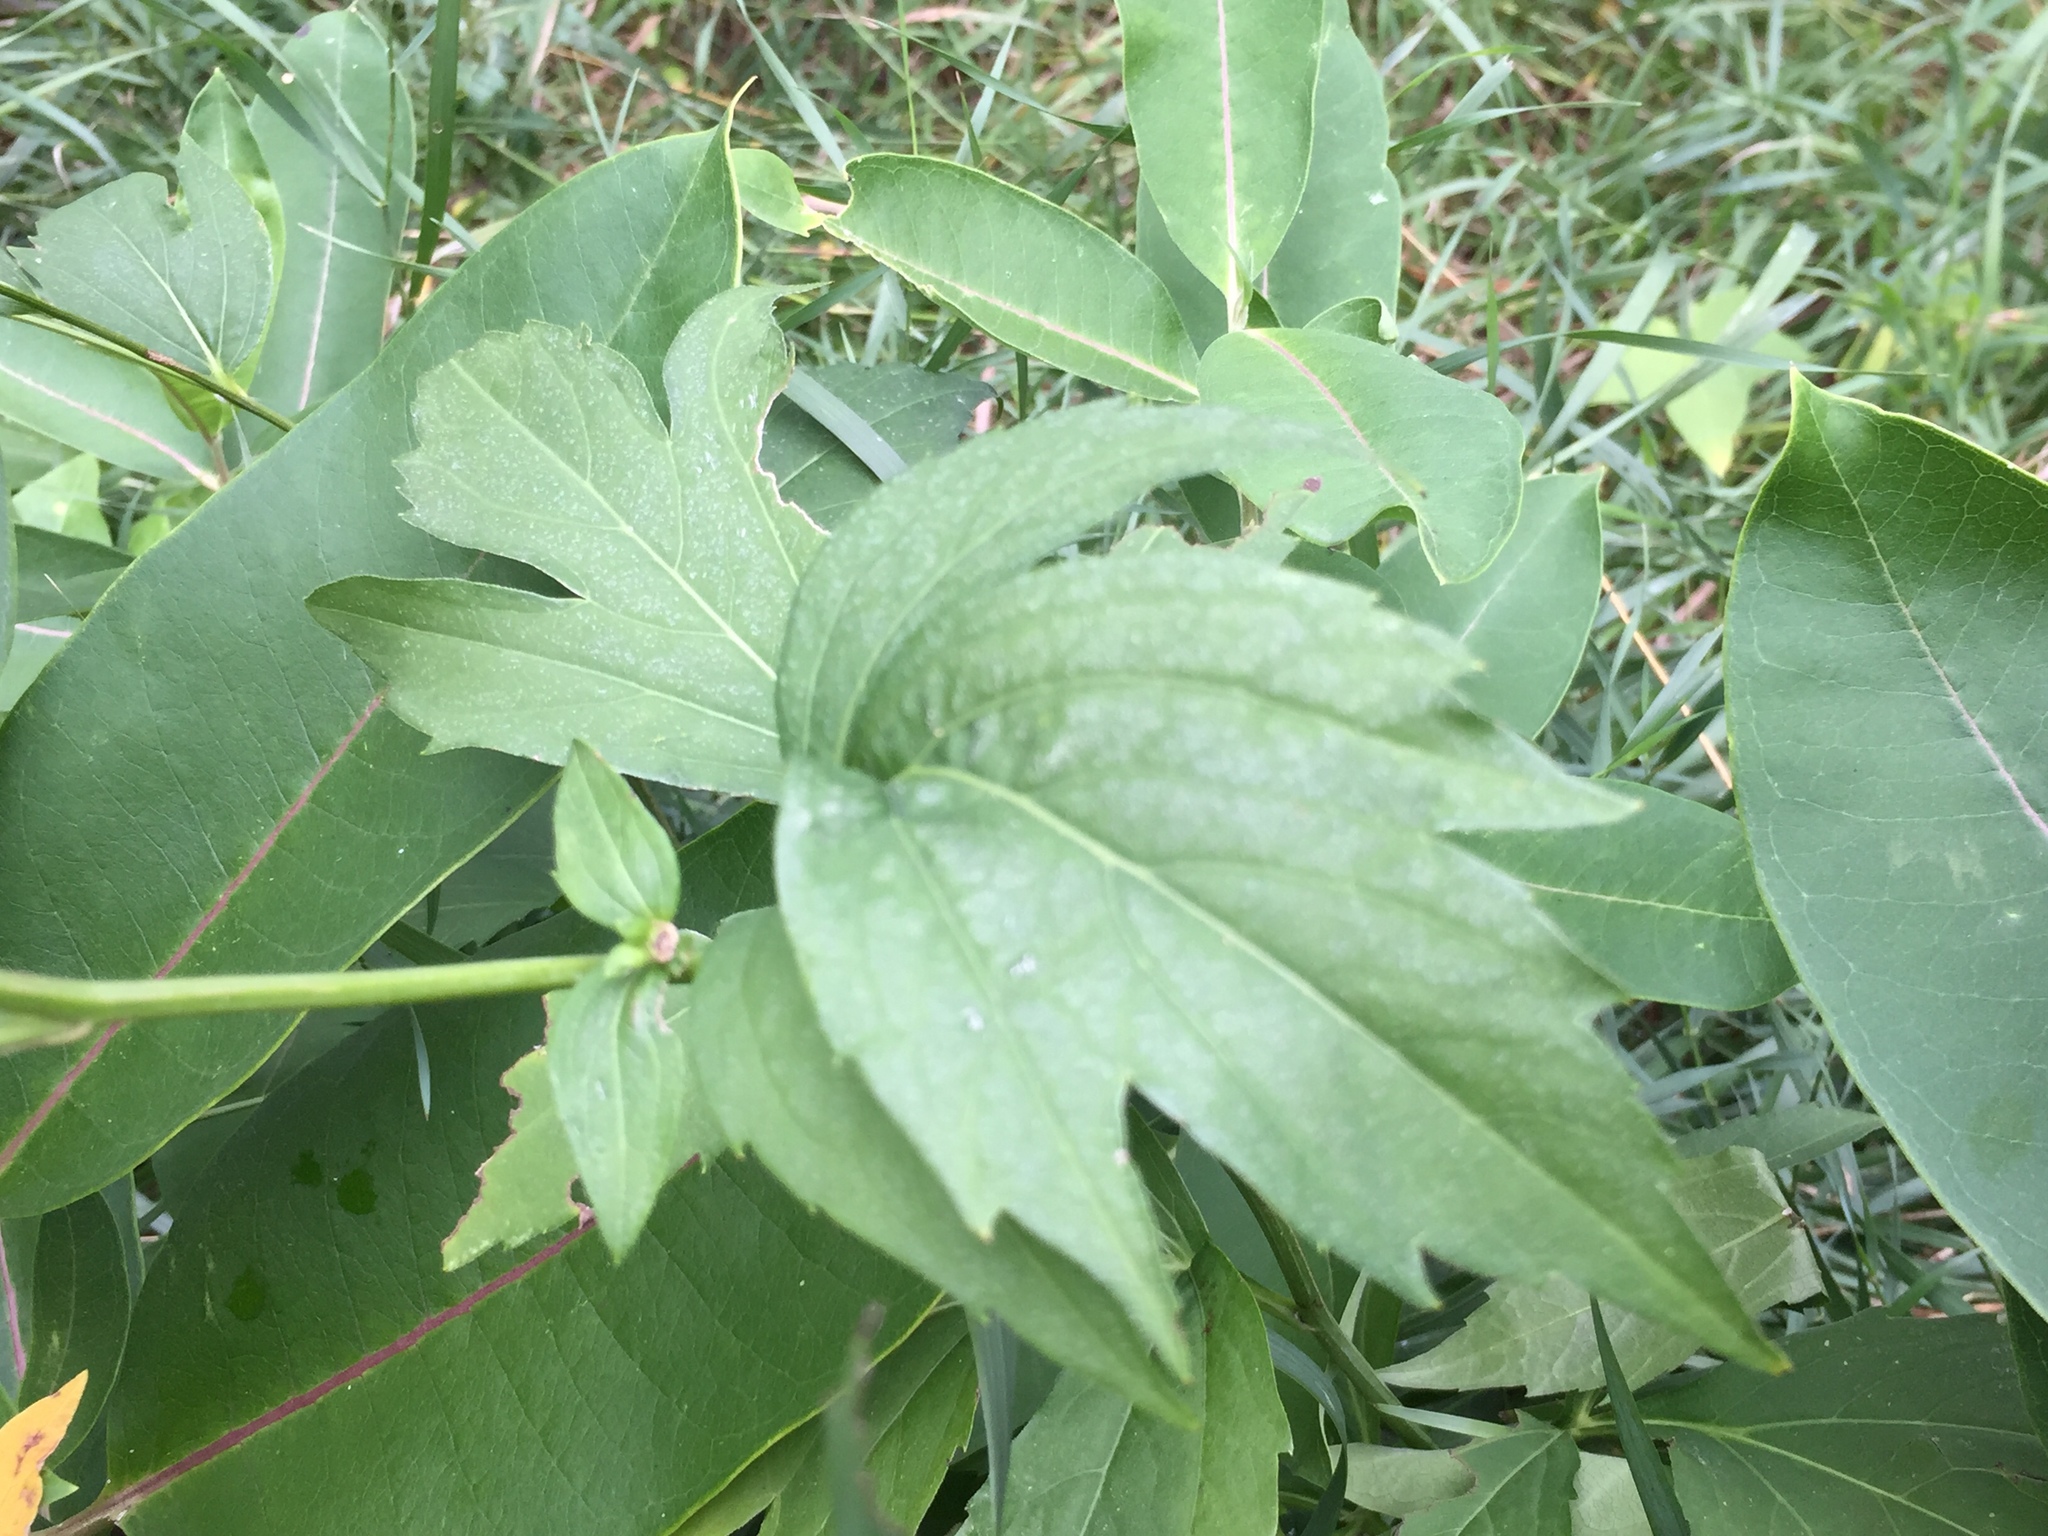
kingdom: Plantae
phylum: Tracheophyta
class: Magnoliopsida
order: Asterales
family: Asteraceae
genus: Rudbeckia
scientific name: Rudbeckia laciniata
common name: Coneflower
